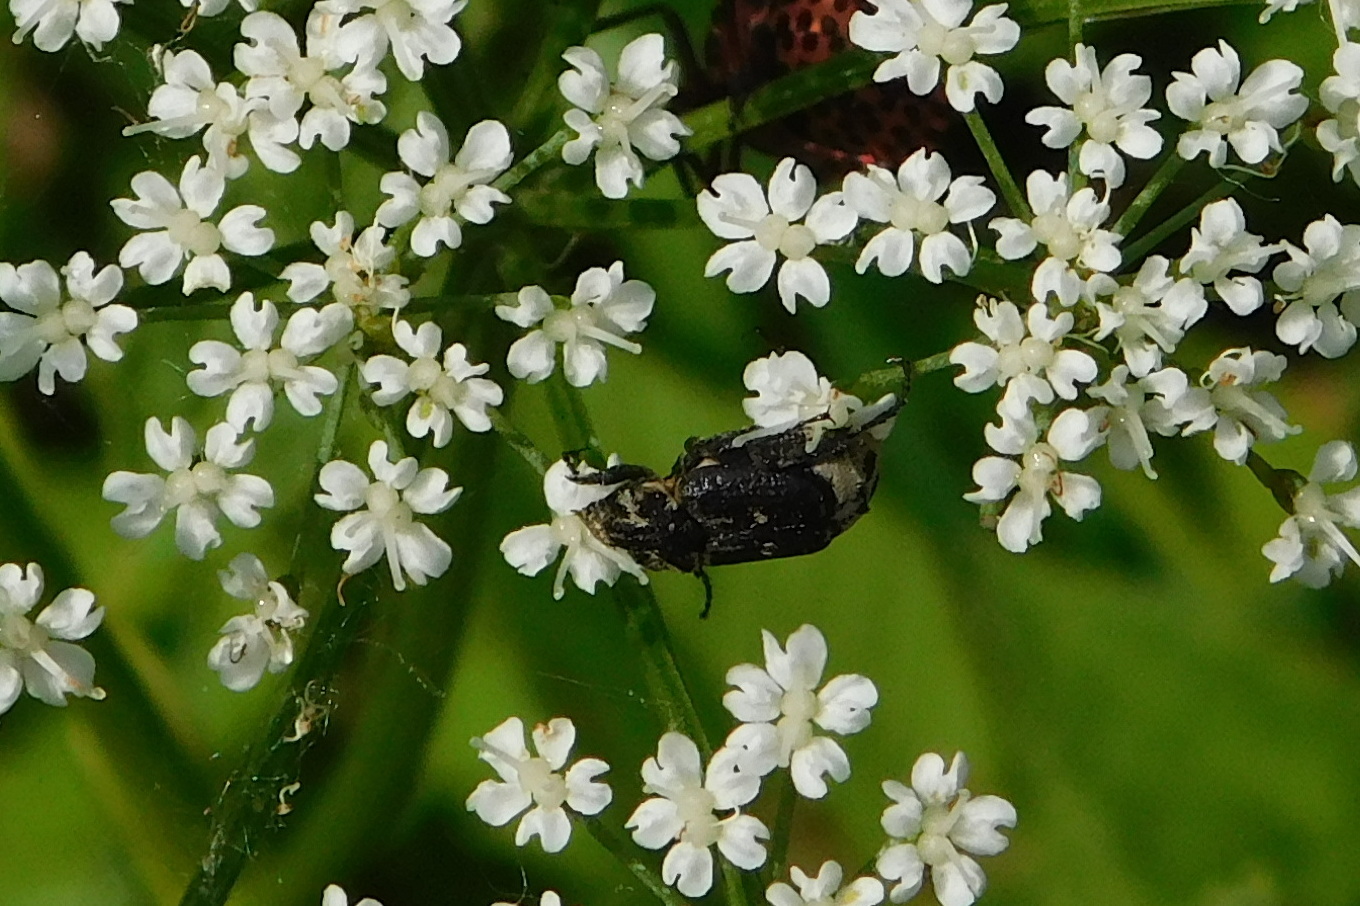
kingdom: Animalia
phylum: Arthropoda
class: Insecta
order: Coleoptera
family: Scarabaeidae
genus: Valgus
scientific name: Valgus hemipterus
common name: Bug flower chafer
